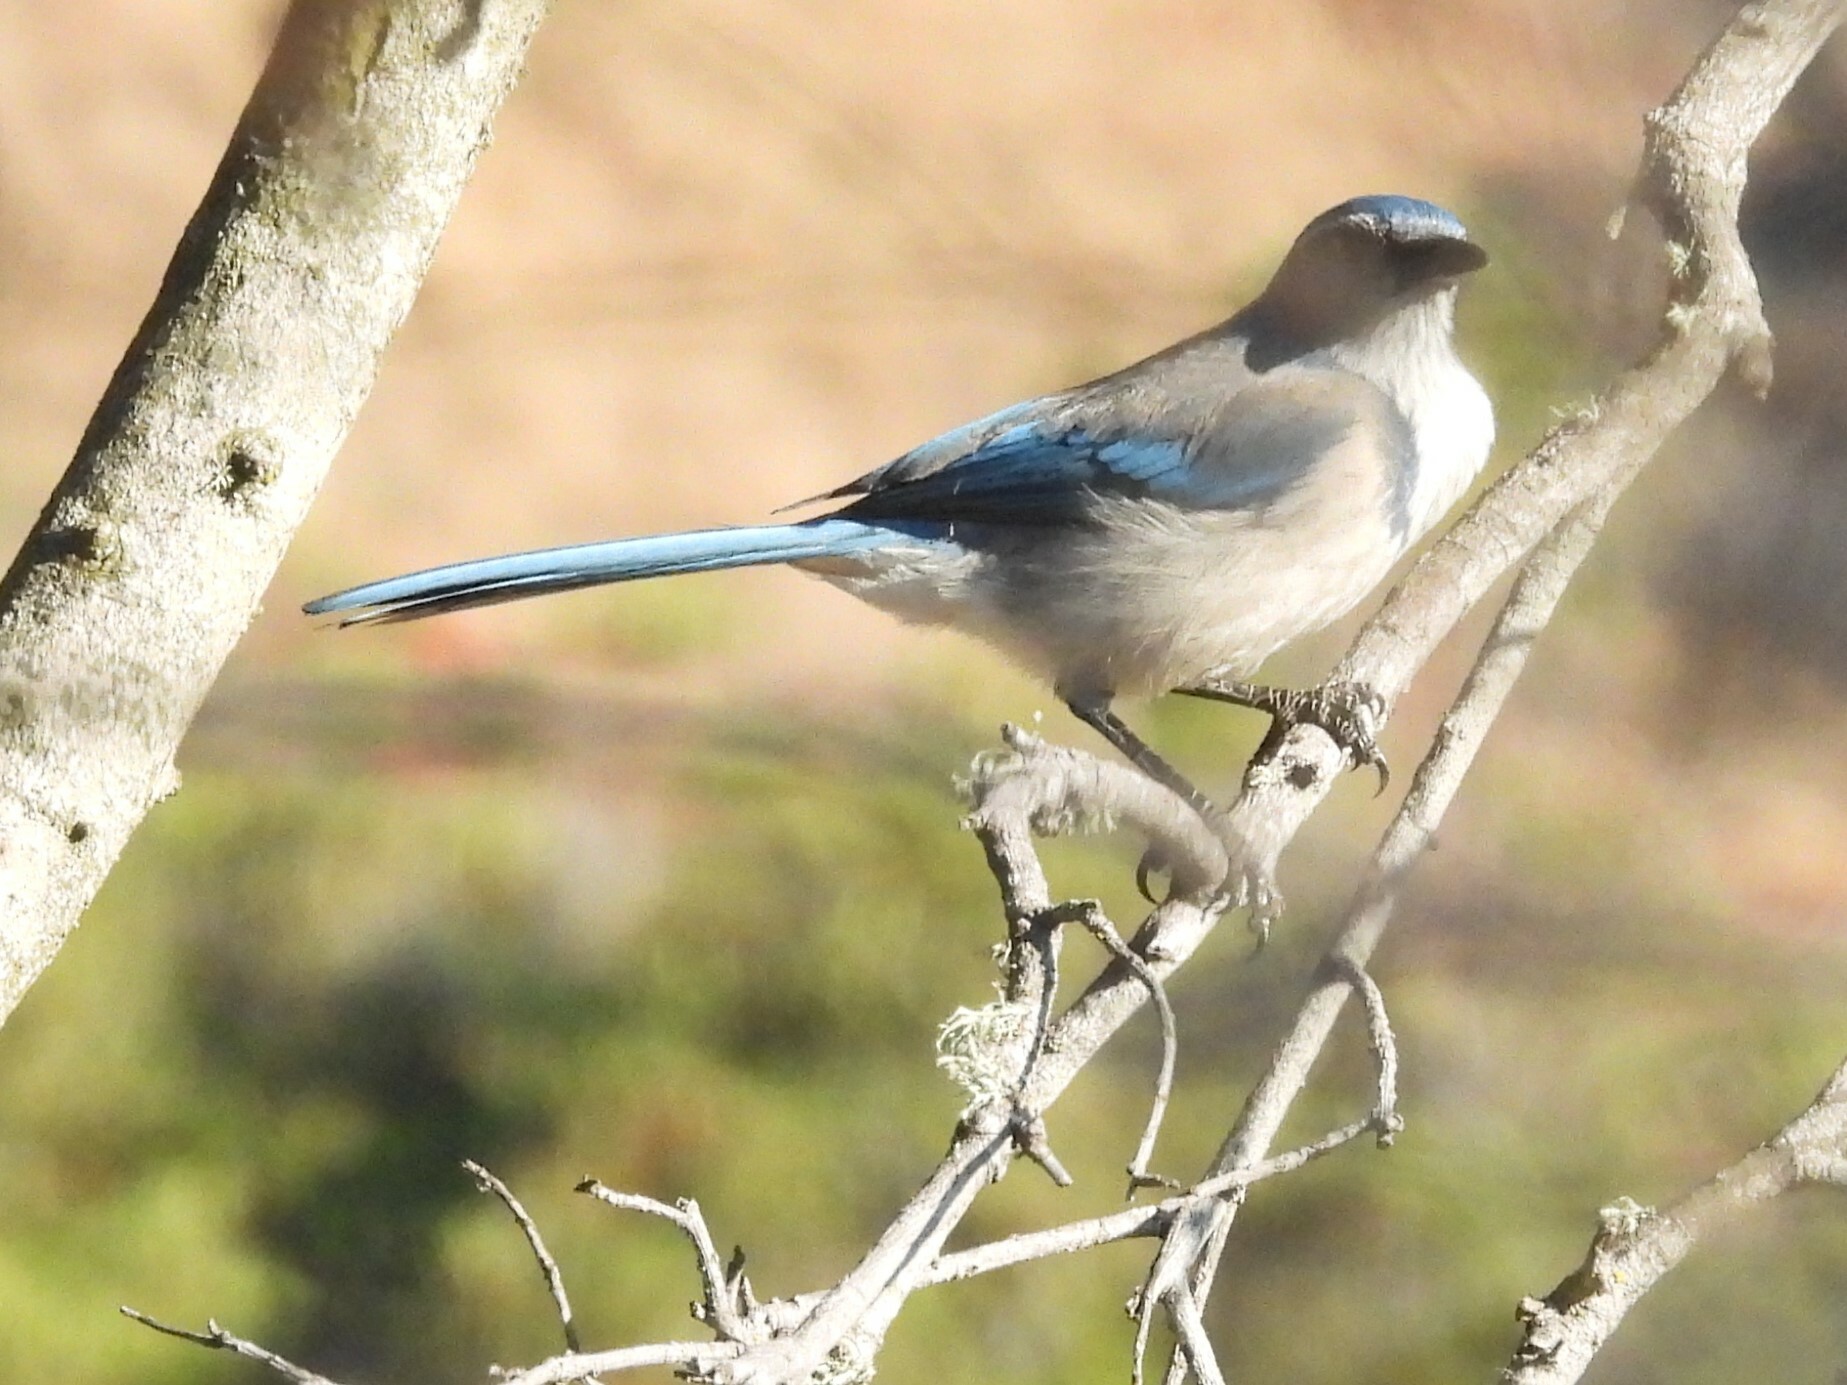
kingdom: Animalia
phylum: Chordata
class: Aves
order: Passeriformes
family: Corvidae
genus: Aphelocoma
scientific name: Aphelocoma californica
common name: California scrub-jay
